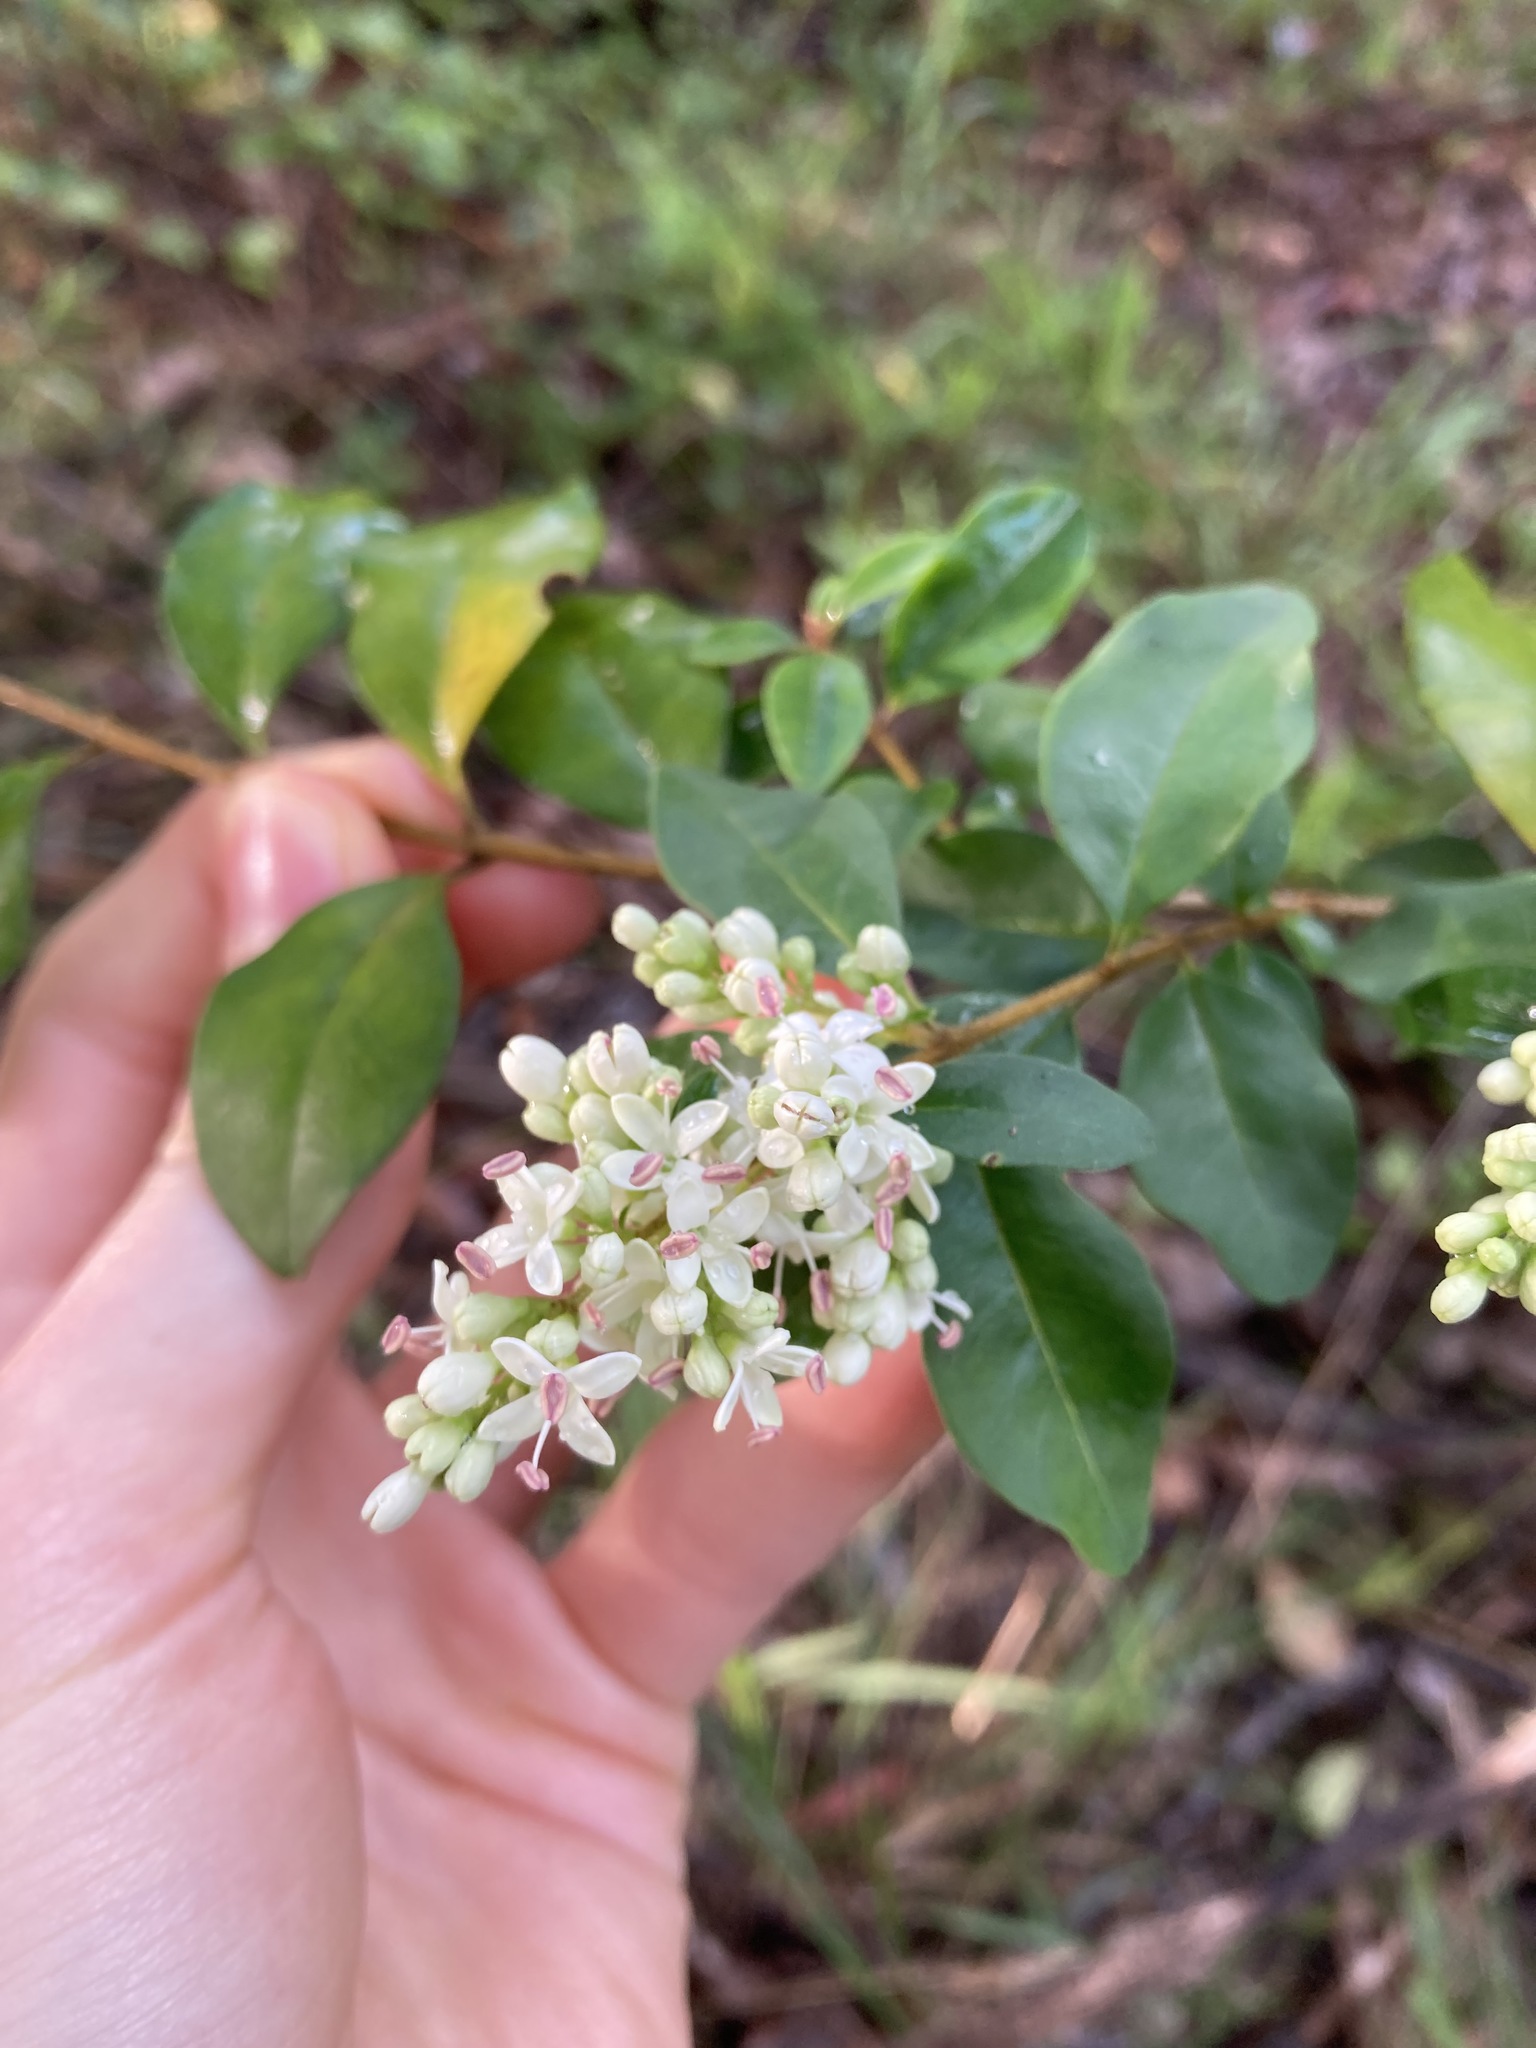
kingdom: Plantae
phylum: Tracheophyta
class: Magnoliopsida
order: Lamiales
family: Oleaceae
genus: Ligustrum
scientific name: Ligustrum sinense
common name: Chinese privet
